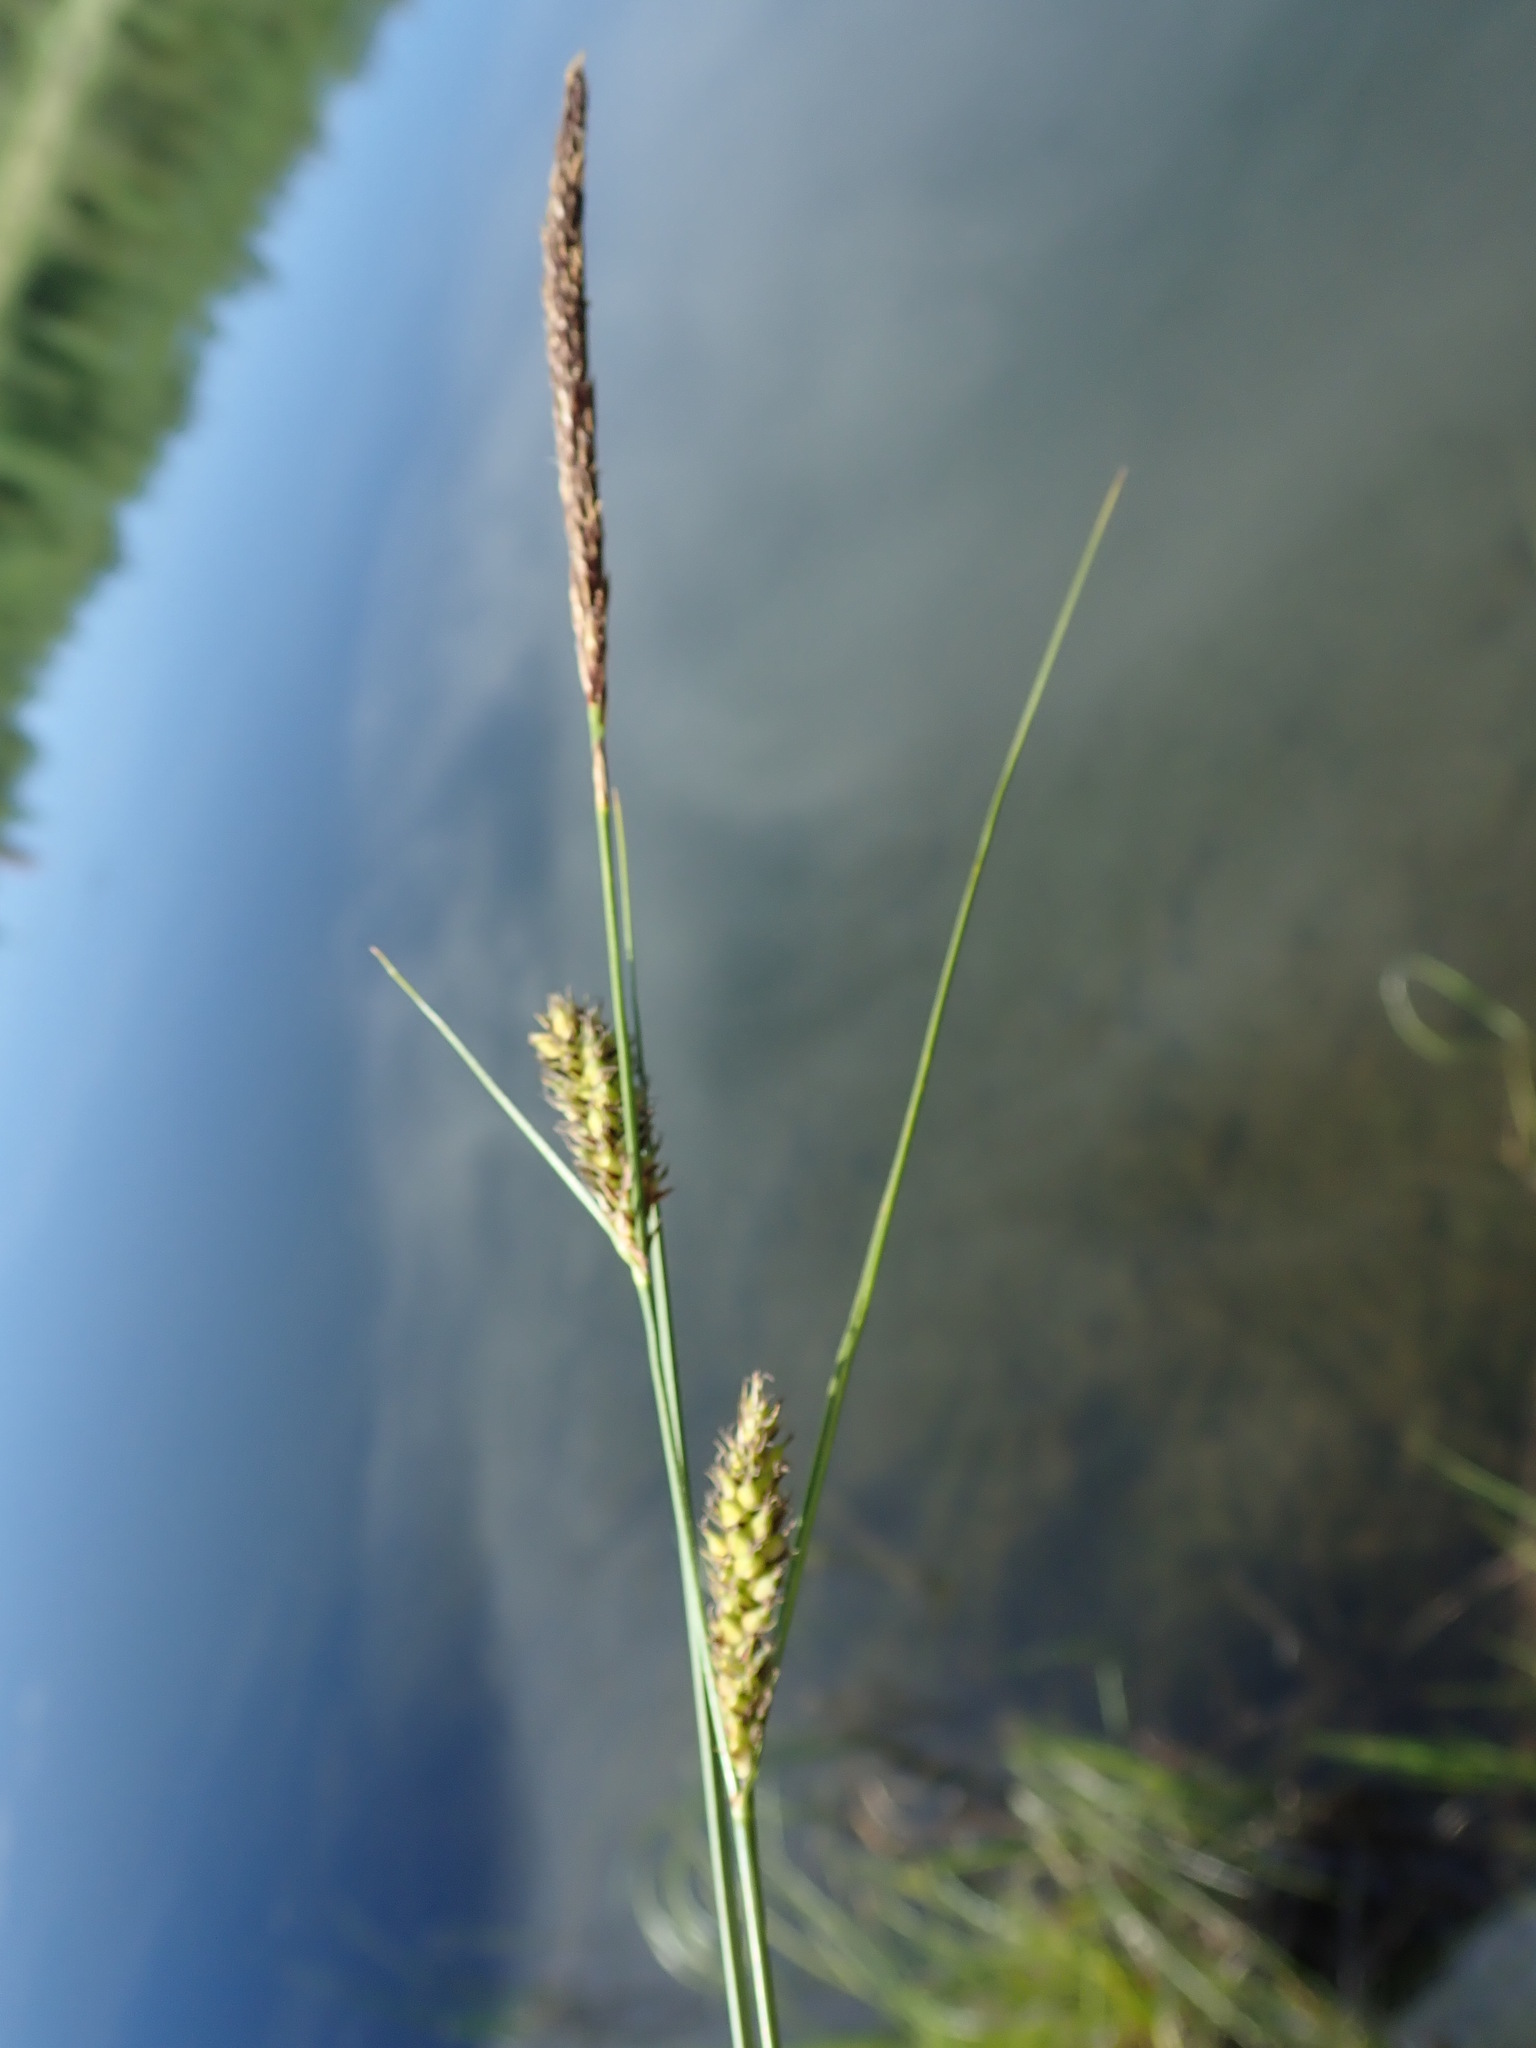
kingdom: Plantae
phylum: Tracheophyta
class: Liliopsida
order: Poales
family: Cyperaceae
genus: Carex
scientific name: Carex lasiocarpa
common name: Slender sedge
